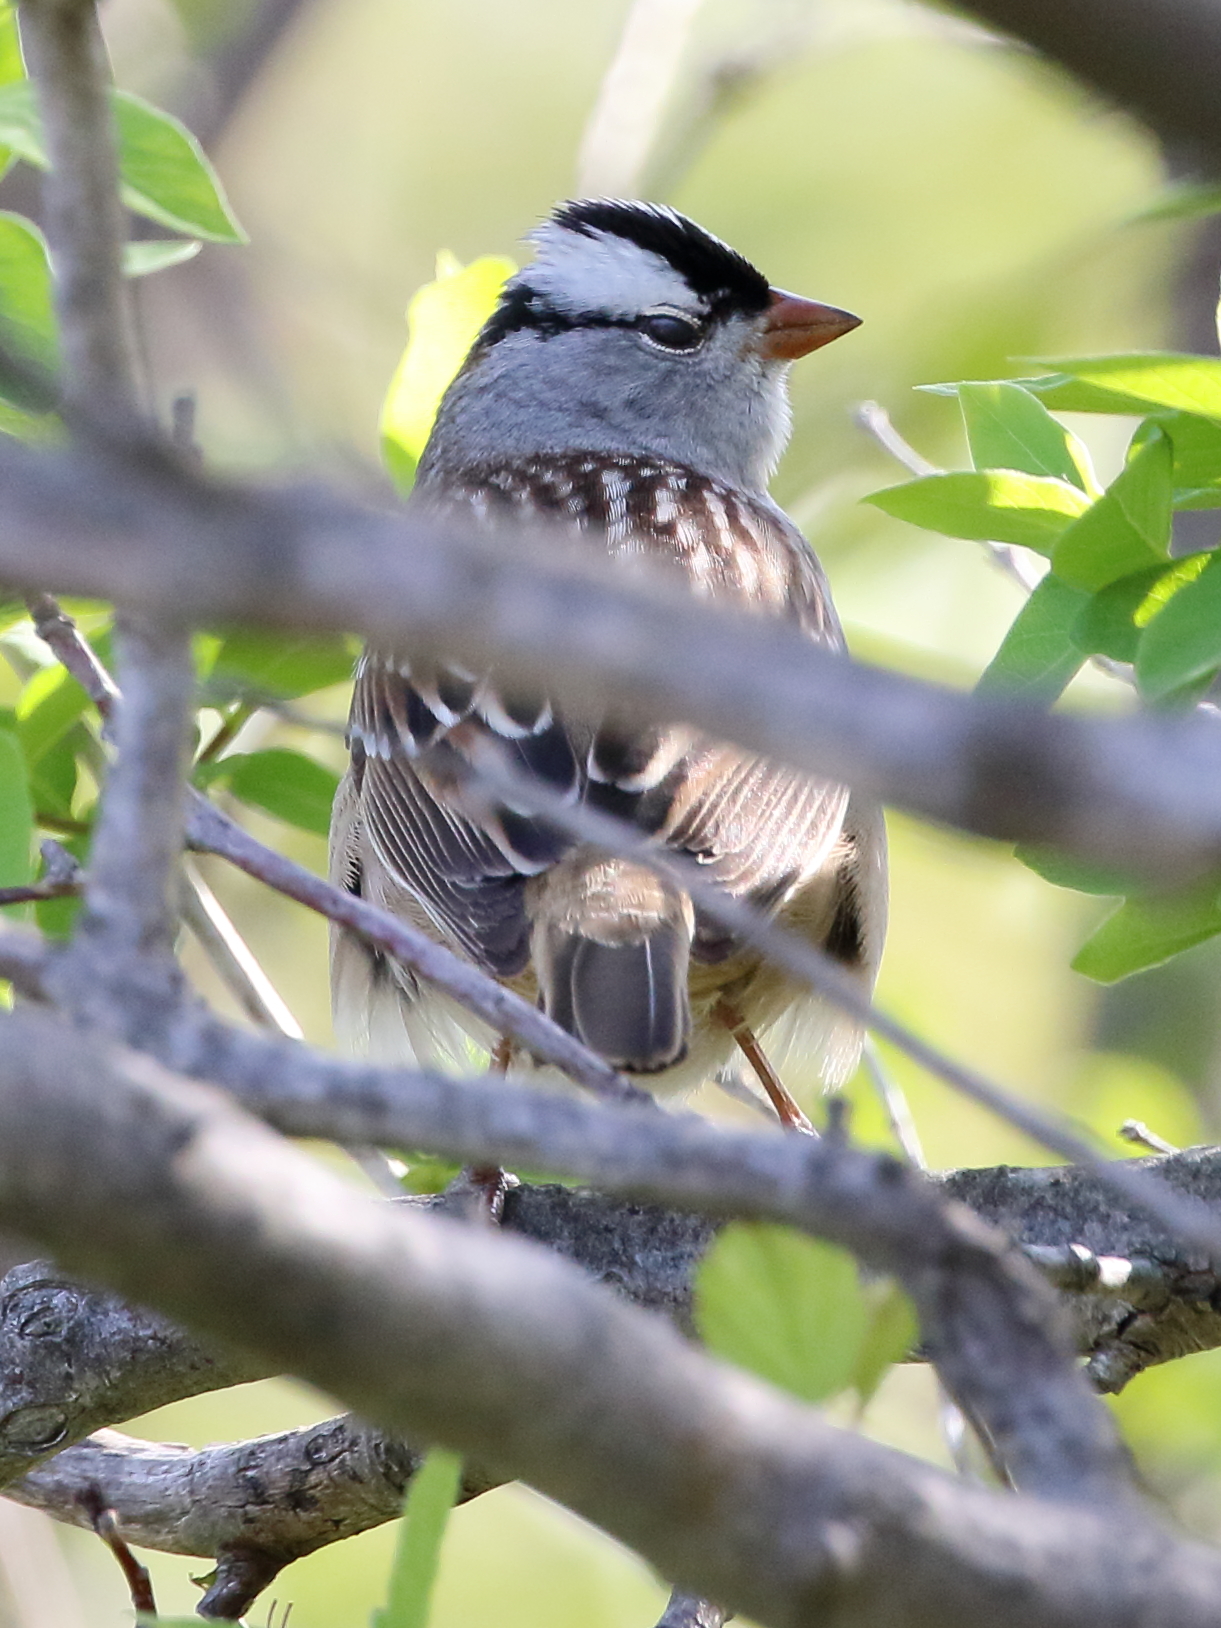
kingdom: Animalia
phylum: Chordata
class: Aves
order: Passeriformes
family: Passerellidae
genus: Zonotrichia
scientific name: Zonotrichia leucophrys
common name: White-crowned sparrow
